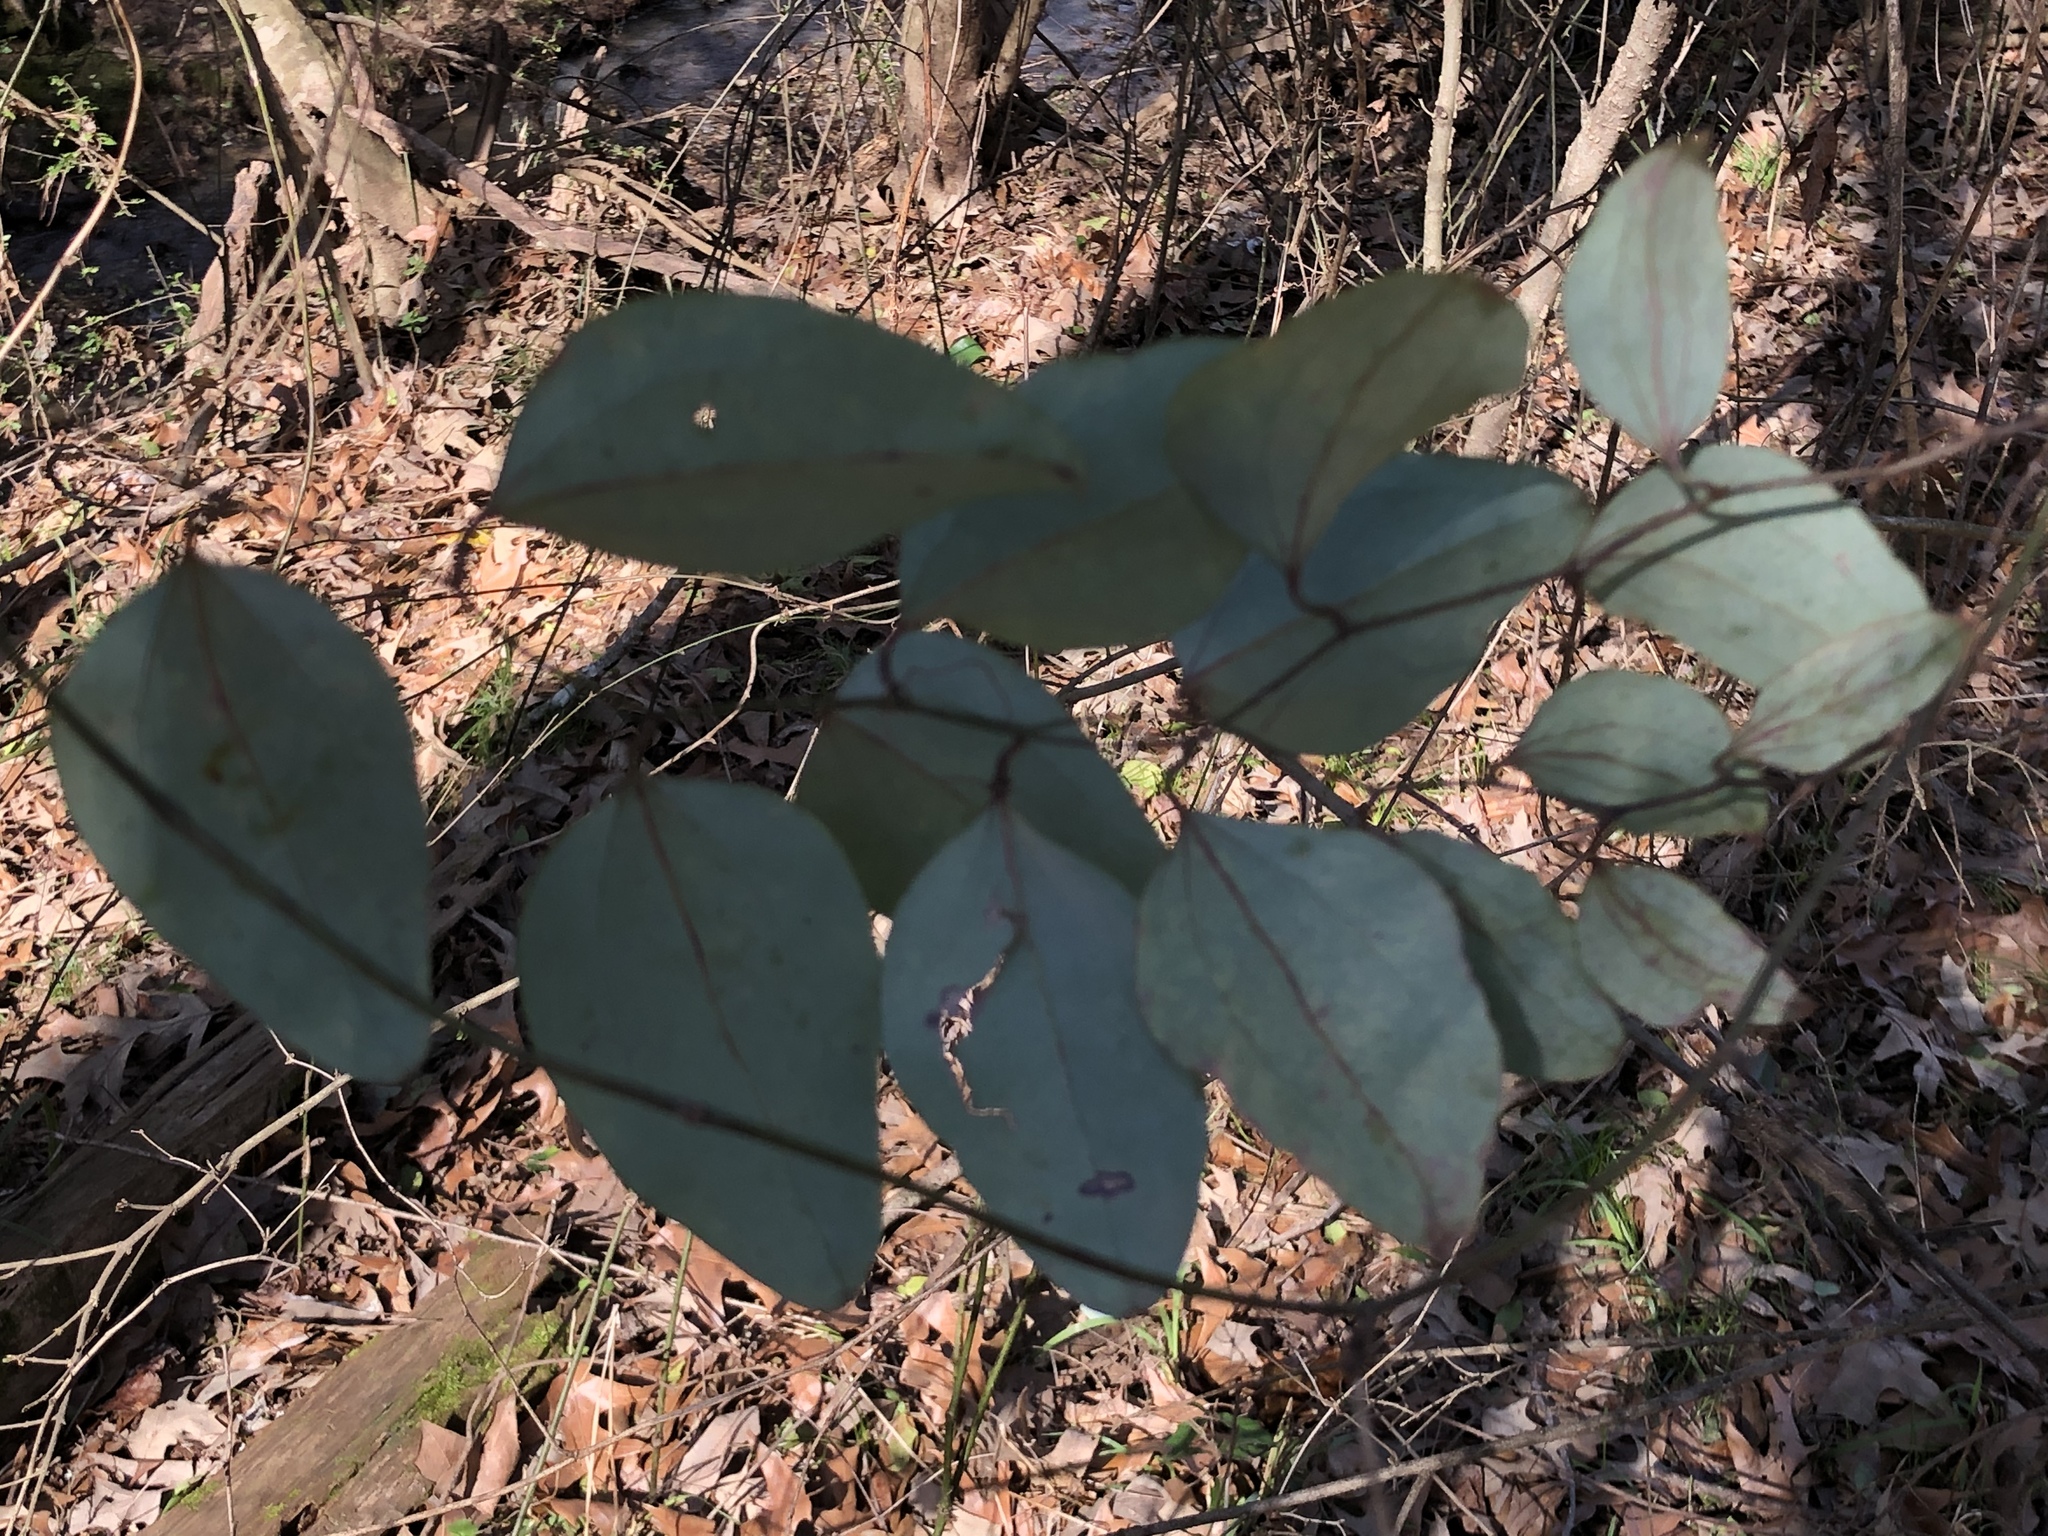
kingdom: Plantae
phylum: Tracheophyta
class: Liliopsida
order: Liliales
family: Smilacaceae
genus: Smilax
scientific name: Smilax glauca
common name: Cat greenbrier
